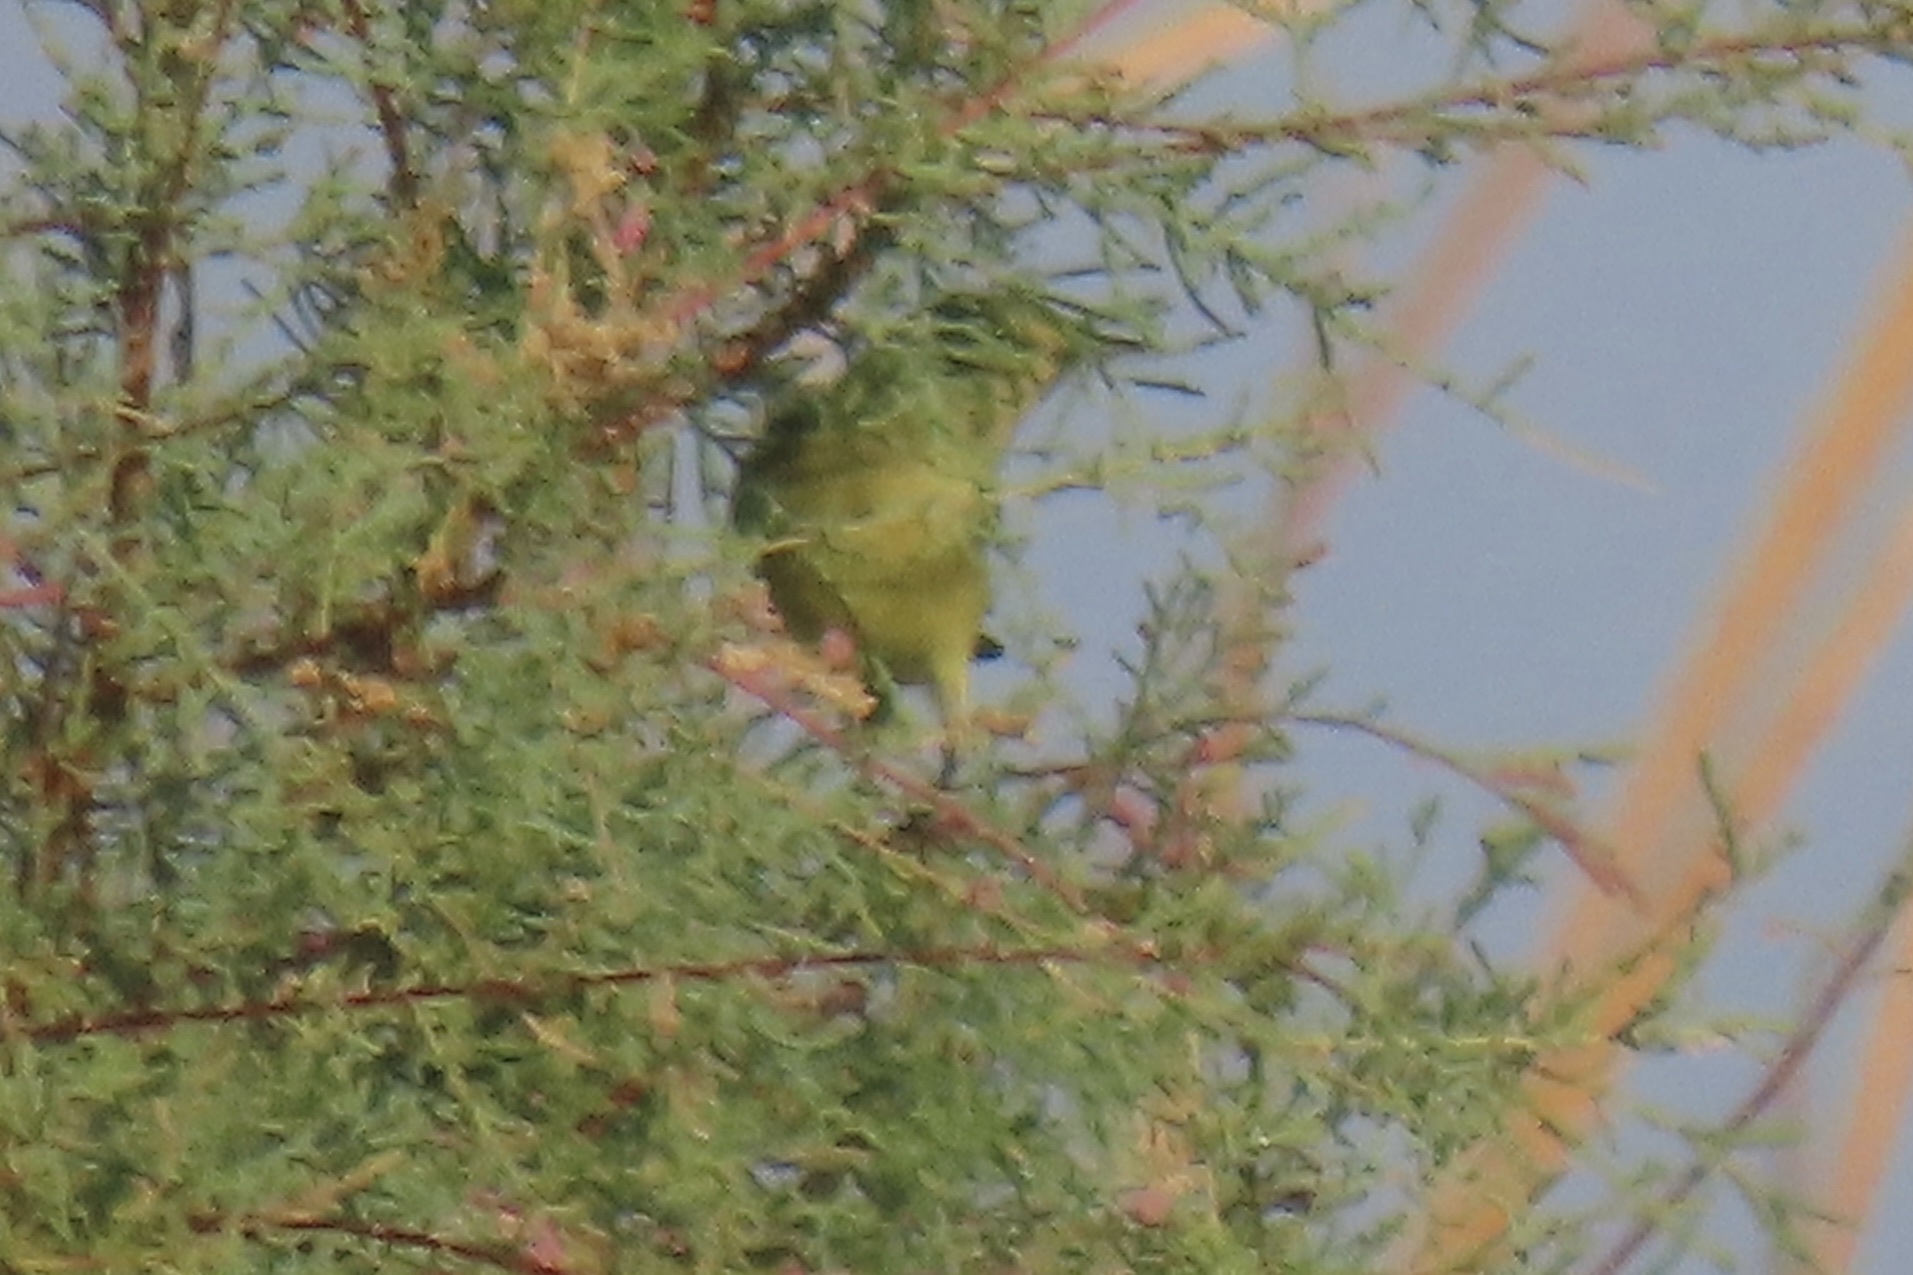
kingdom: Animalia
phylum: Chordata
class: Aves
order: Passeriformes
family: Parulidae
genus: Leiothlypis
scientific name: Leiothlypis celata
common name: Orange-crowned warbler
